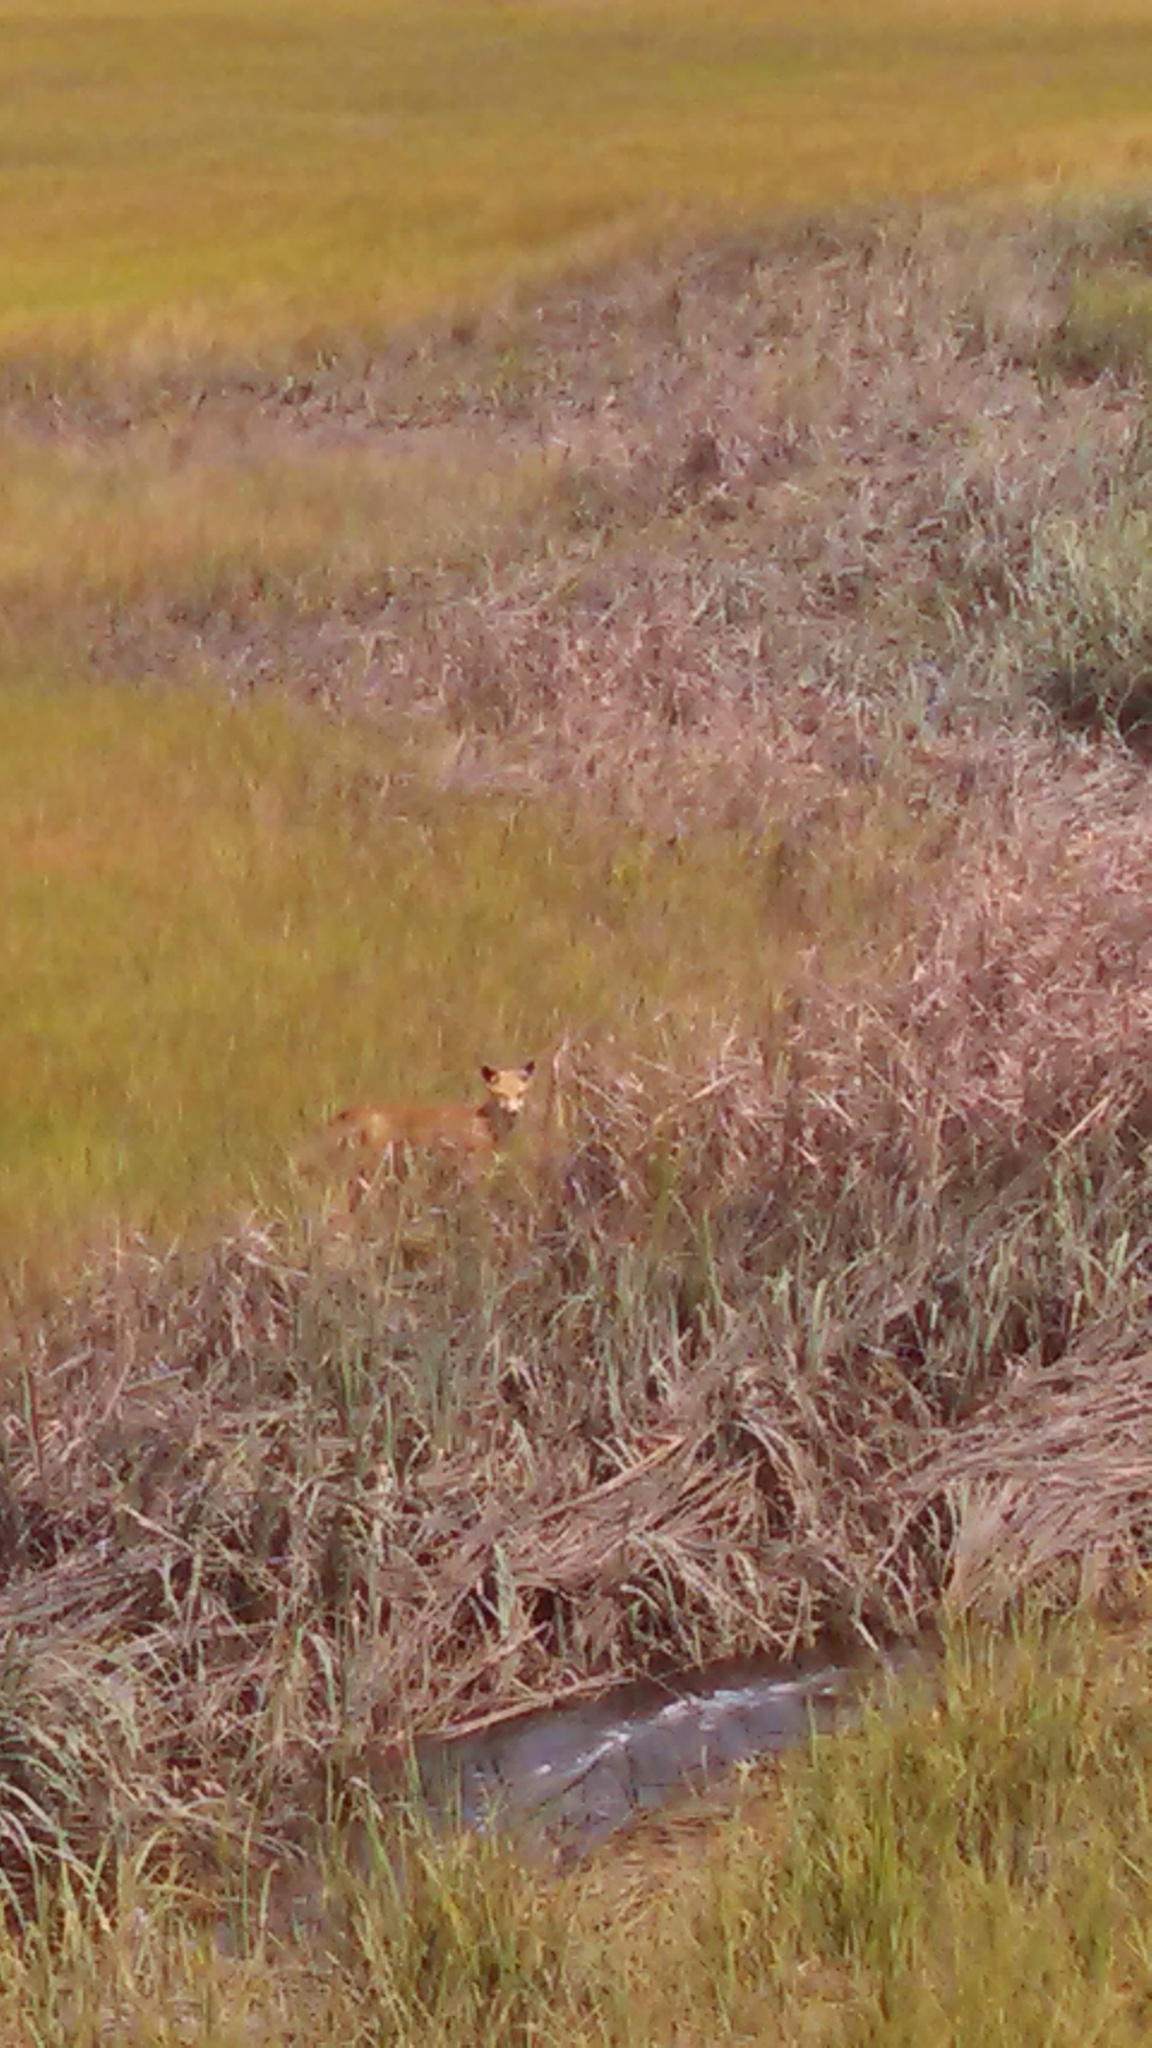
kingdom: Animalia
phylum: Chordata
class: Mammalia
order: Carnivora
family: Canidae
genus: Vulpes
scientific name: Vulpes vulpes
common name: Red fox
